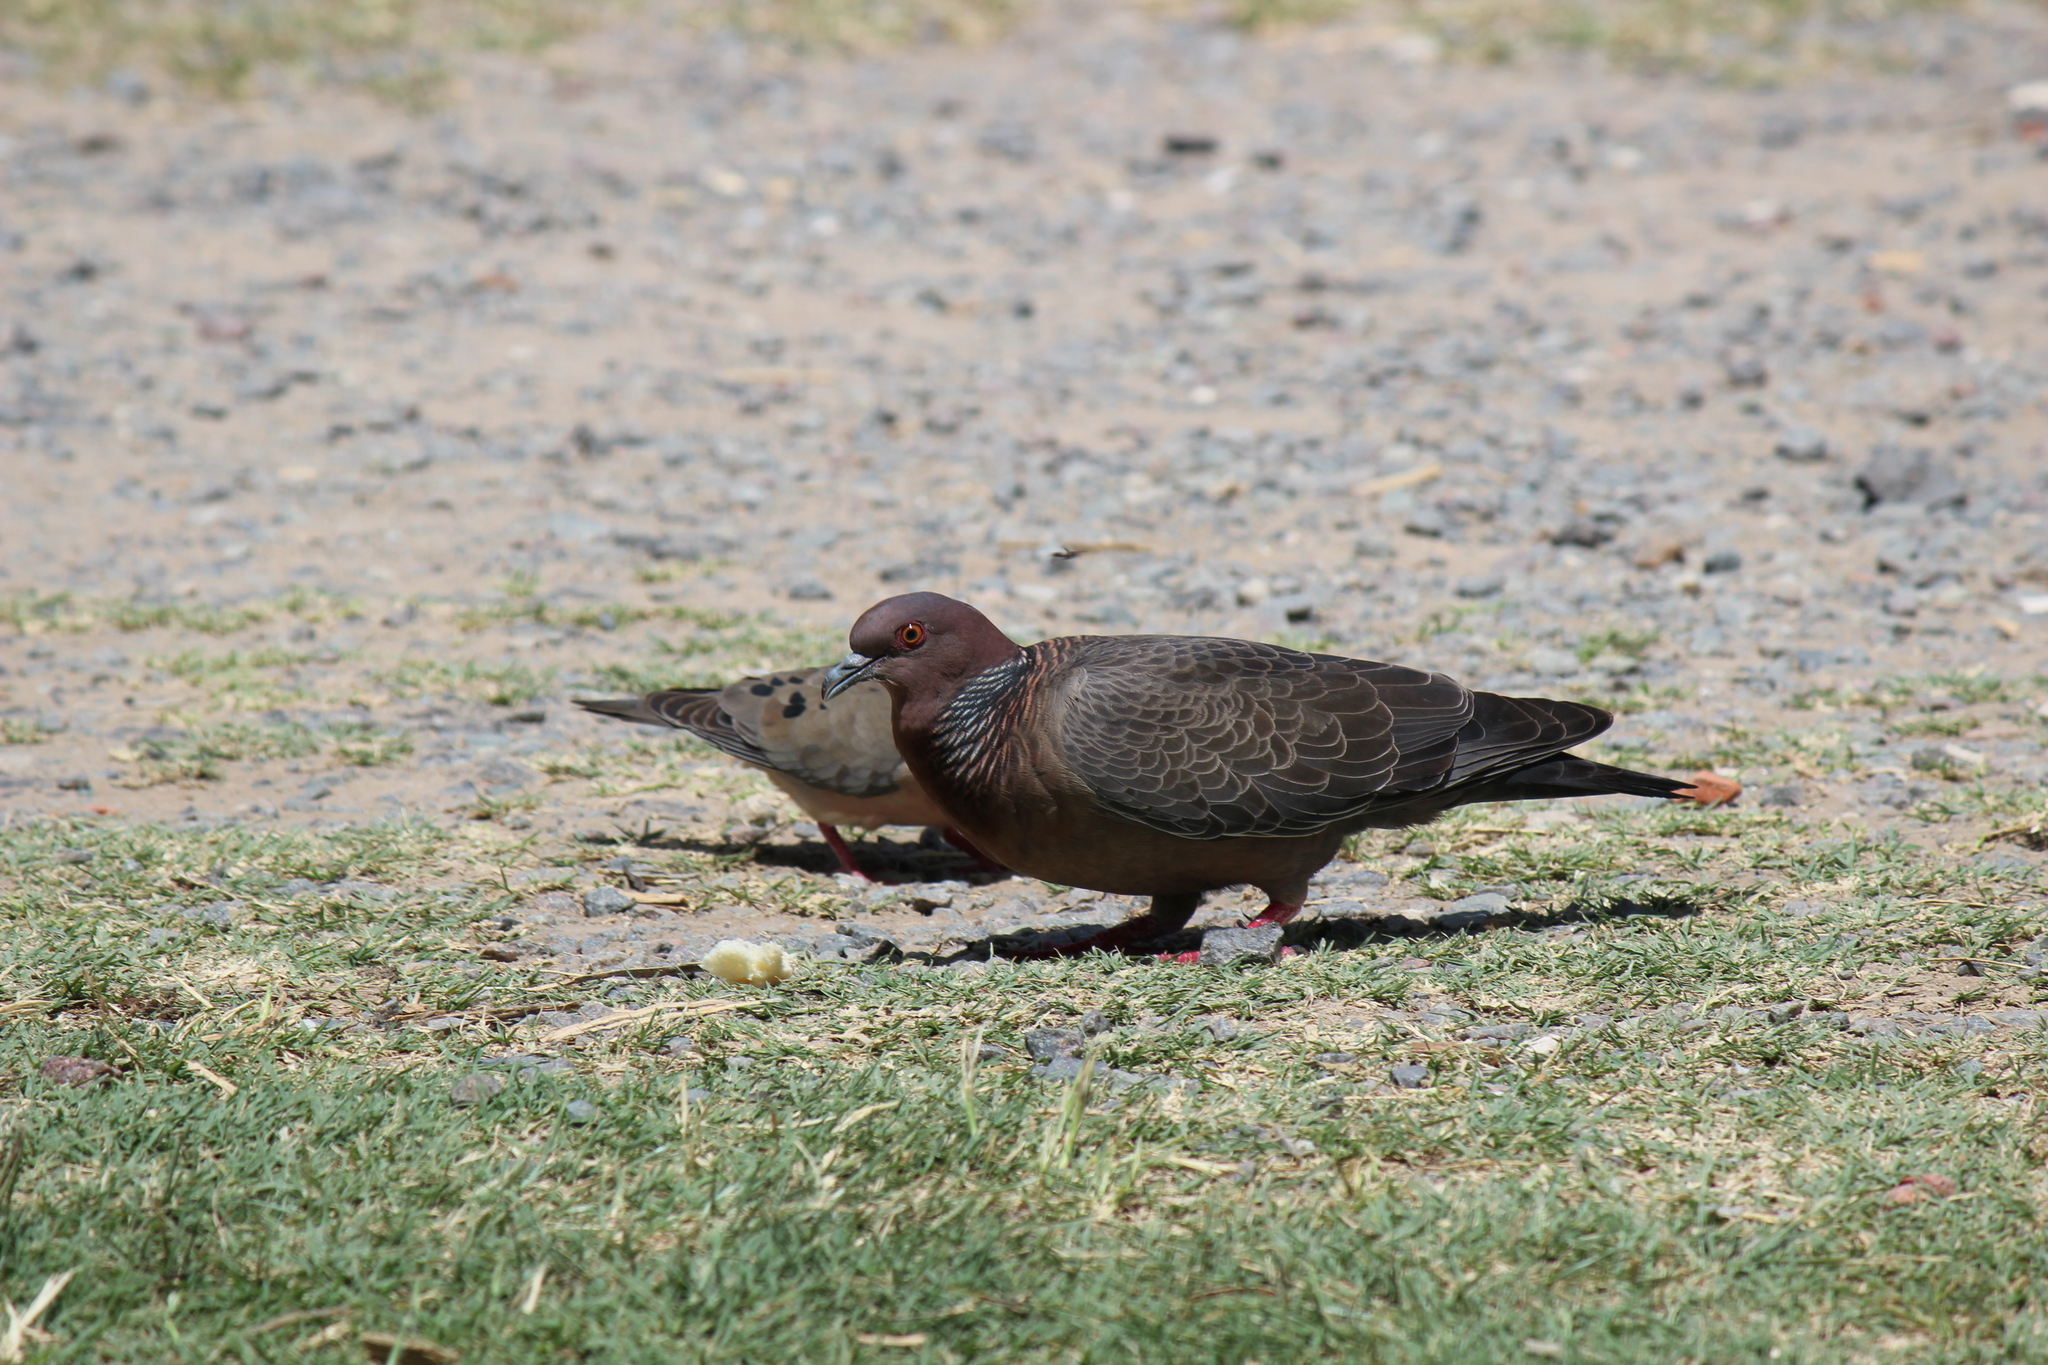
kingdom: Animalia
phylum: Chordata
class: Aves
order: Columbiformes
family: Columbidae
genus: Patagioenas
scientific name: Patagioenas picazuro
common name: Picazuro pigeon
